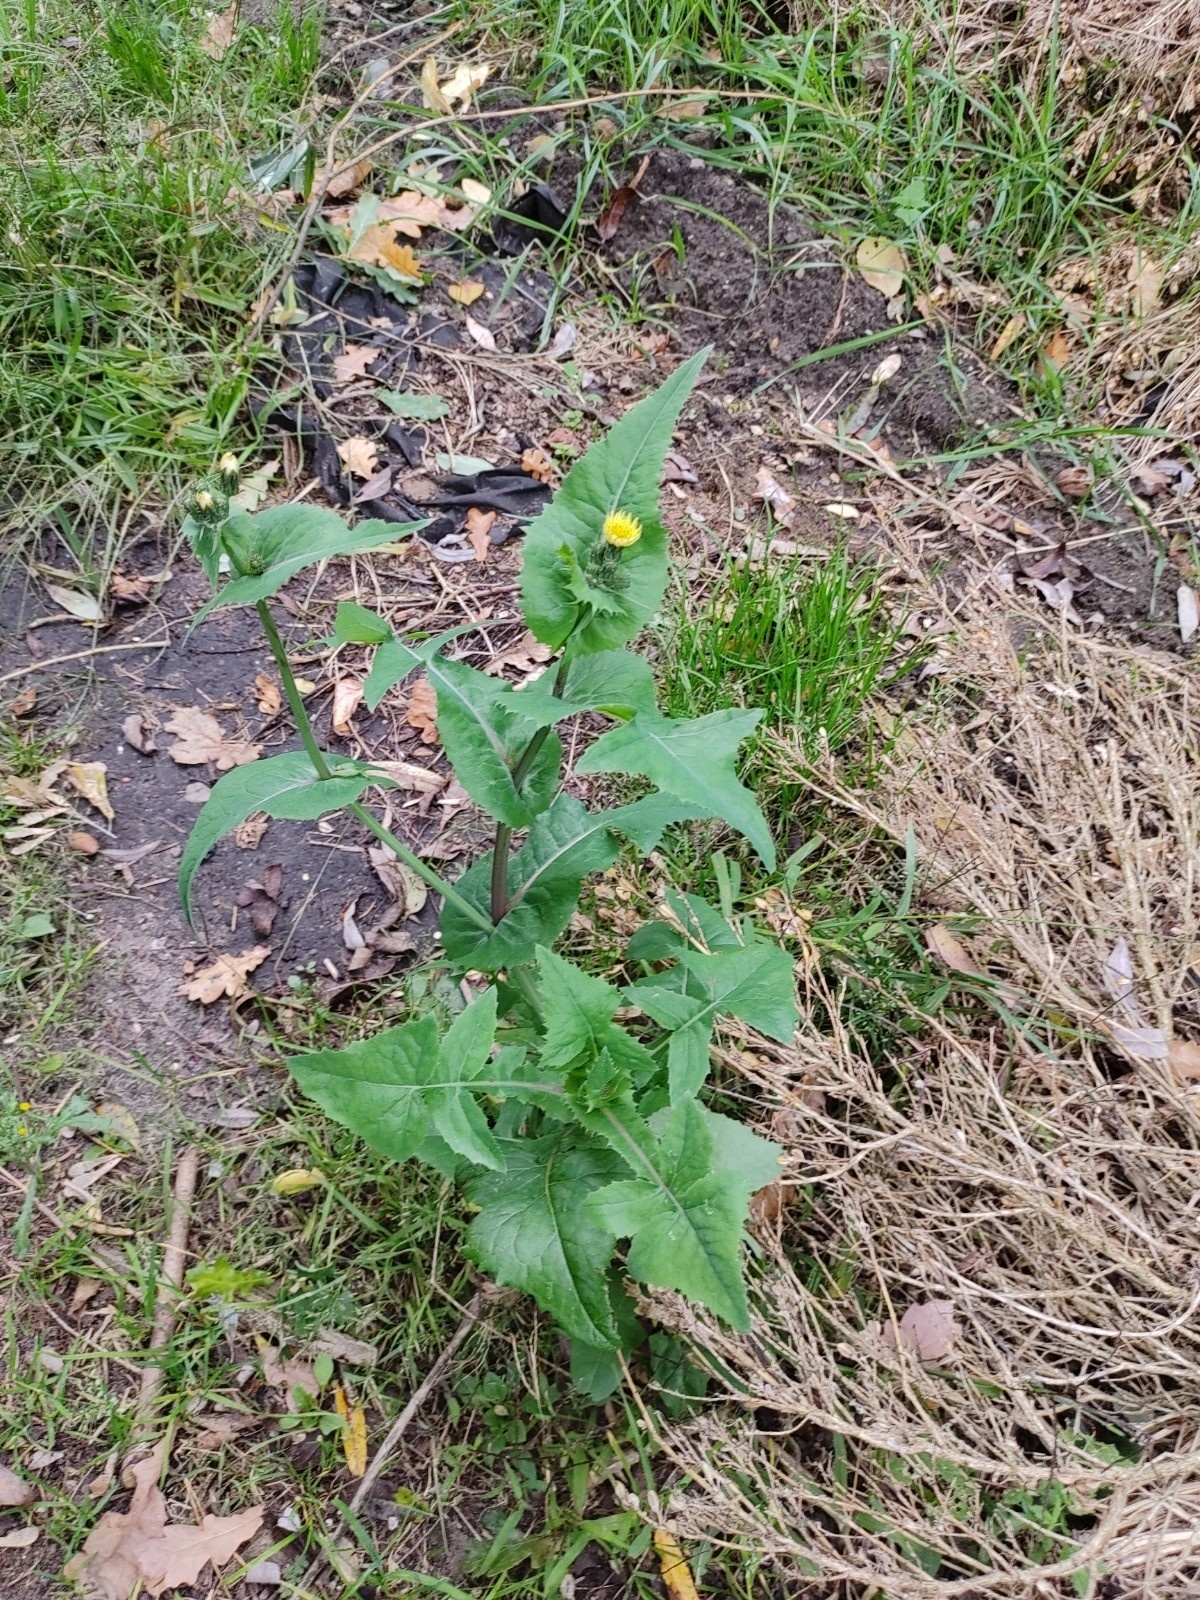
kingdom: Plantae
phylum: Tracheophyta
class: Magnoliopsida
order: Asterales
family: Asteraceae
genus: Sonchus
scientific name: Sonchus oleraceus
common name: Common sowthistle
